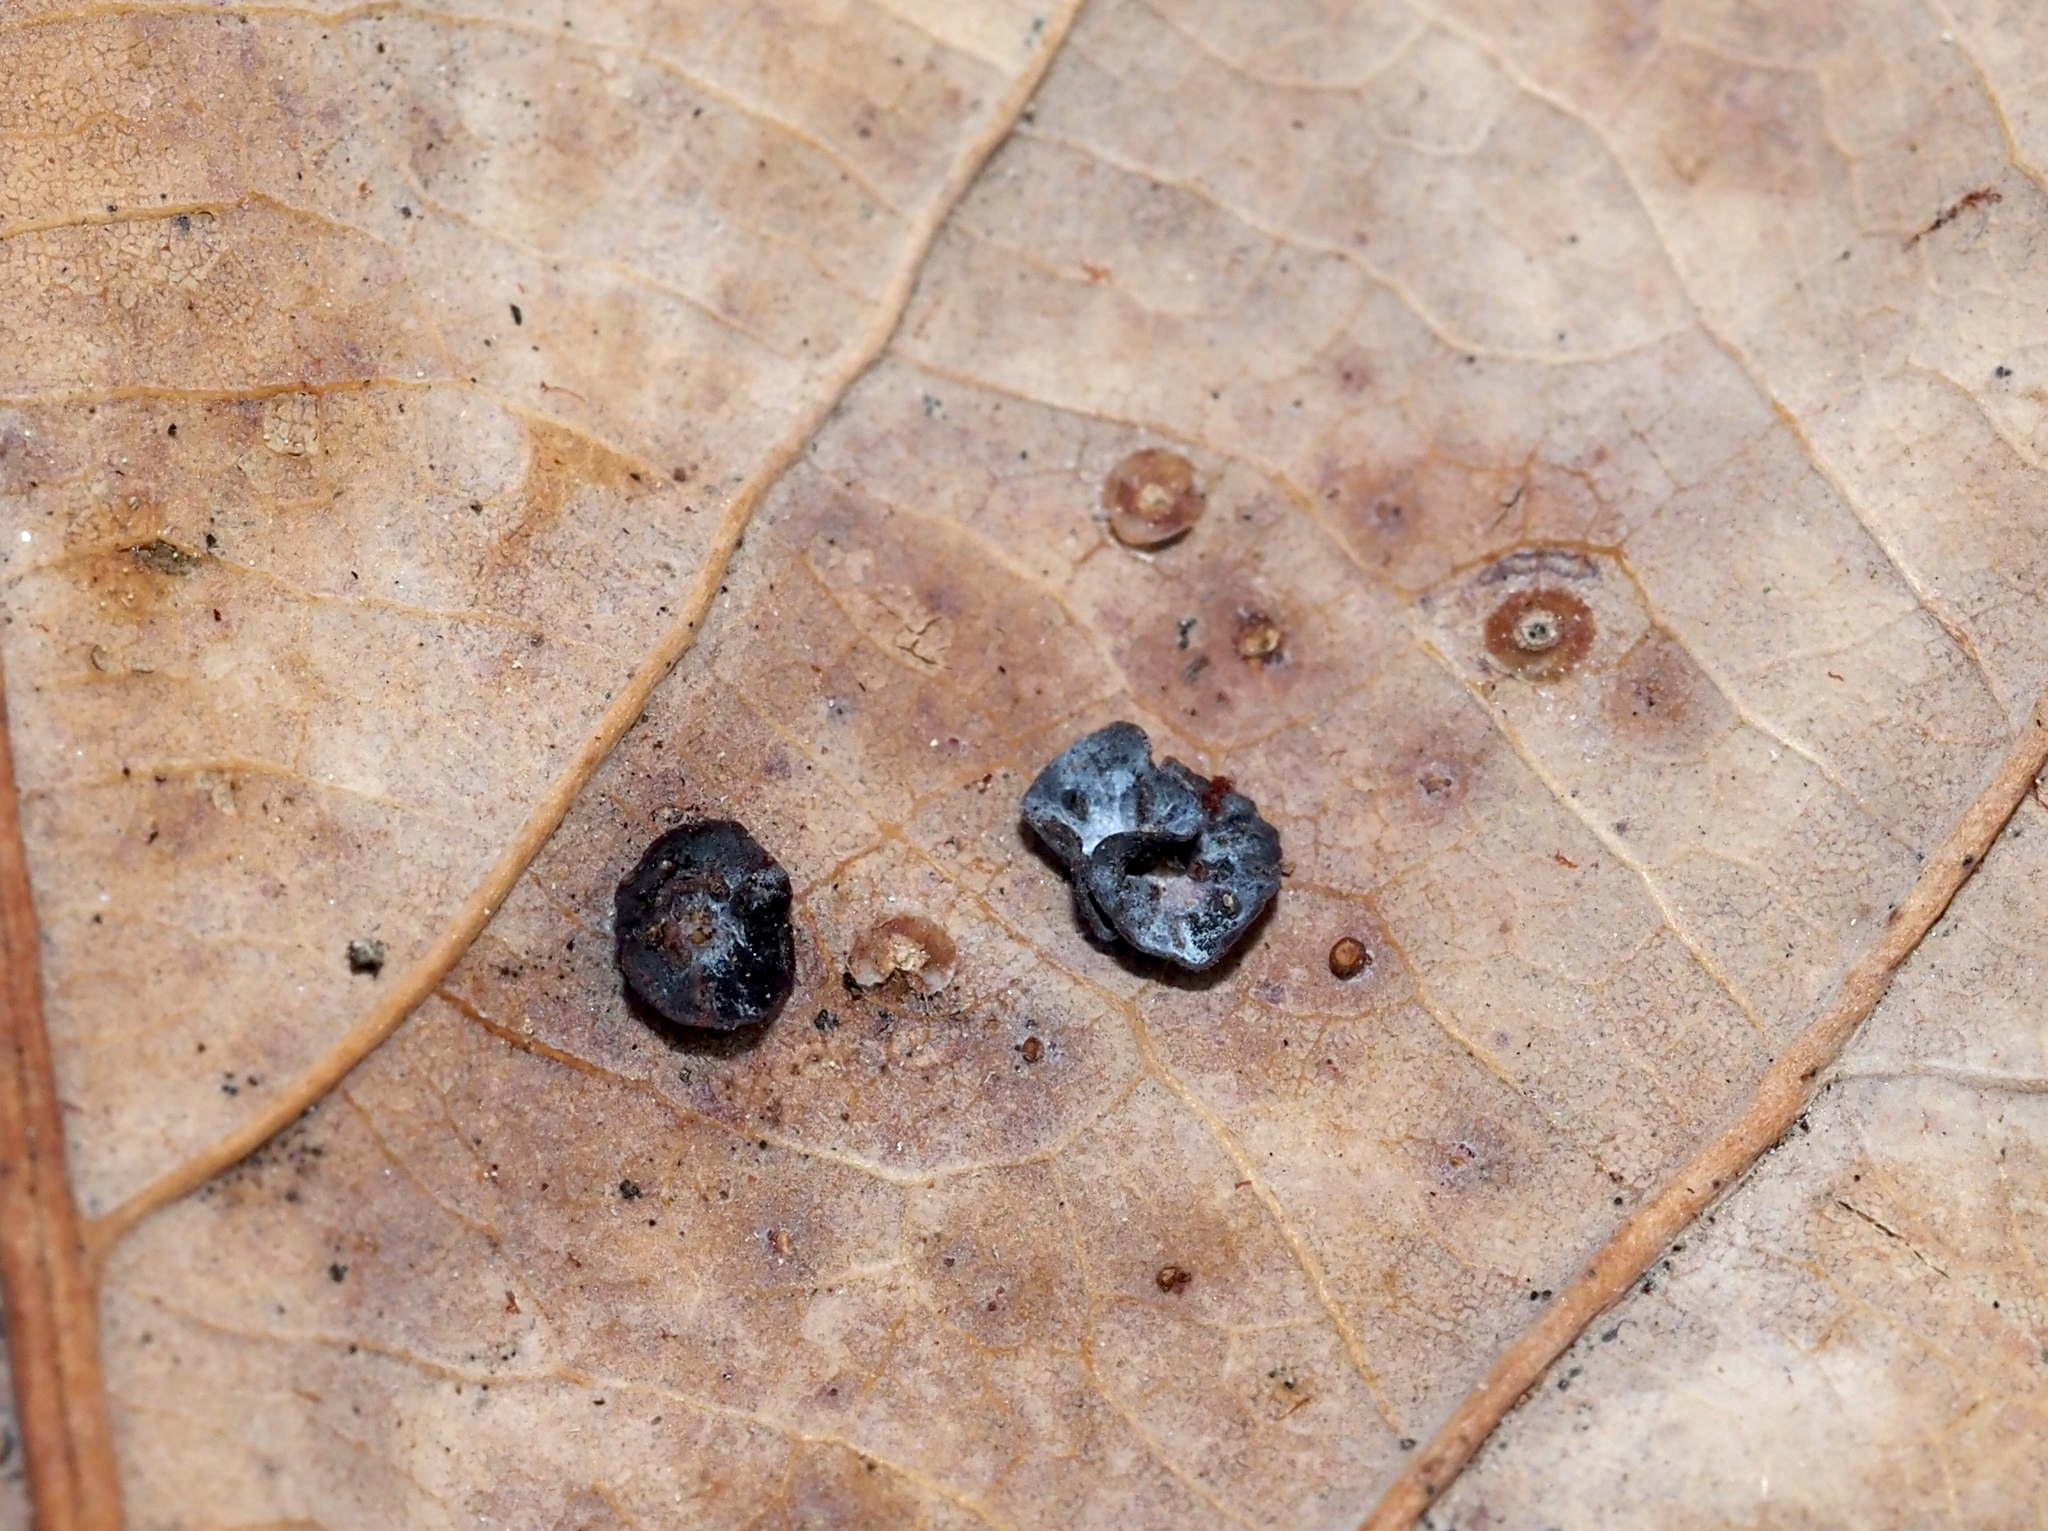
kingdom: Animalia
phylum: Arthropoda
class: Insecta
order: Hymenoptera
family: Cynipidae
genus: Phylloteras
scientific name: Phylloteras poculum
